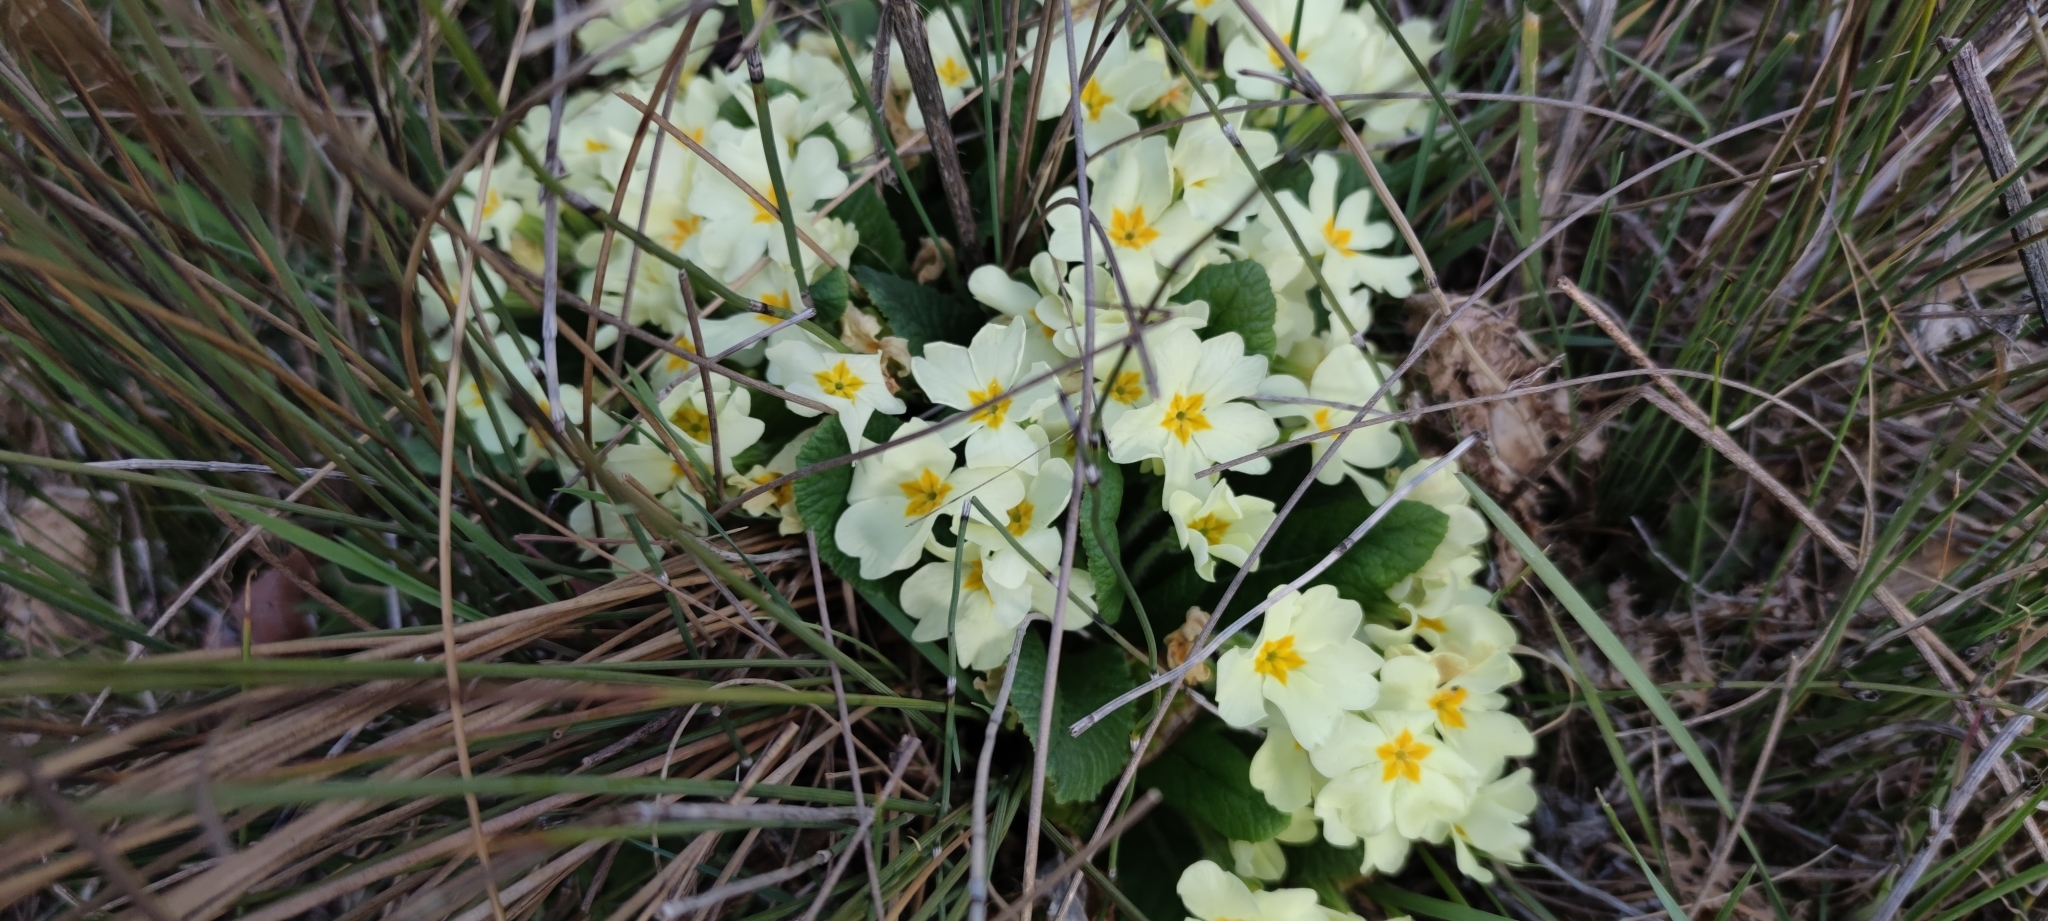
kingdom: Plantae
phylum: Tracheophyta
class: Magnoliopsida
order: Ericales
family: Primulaceae
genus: Primula
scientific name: Primula vulgaris
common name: Primrose
